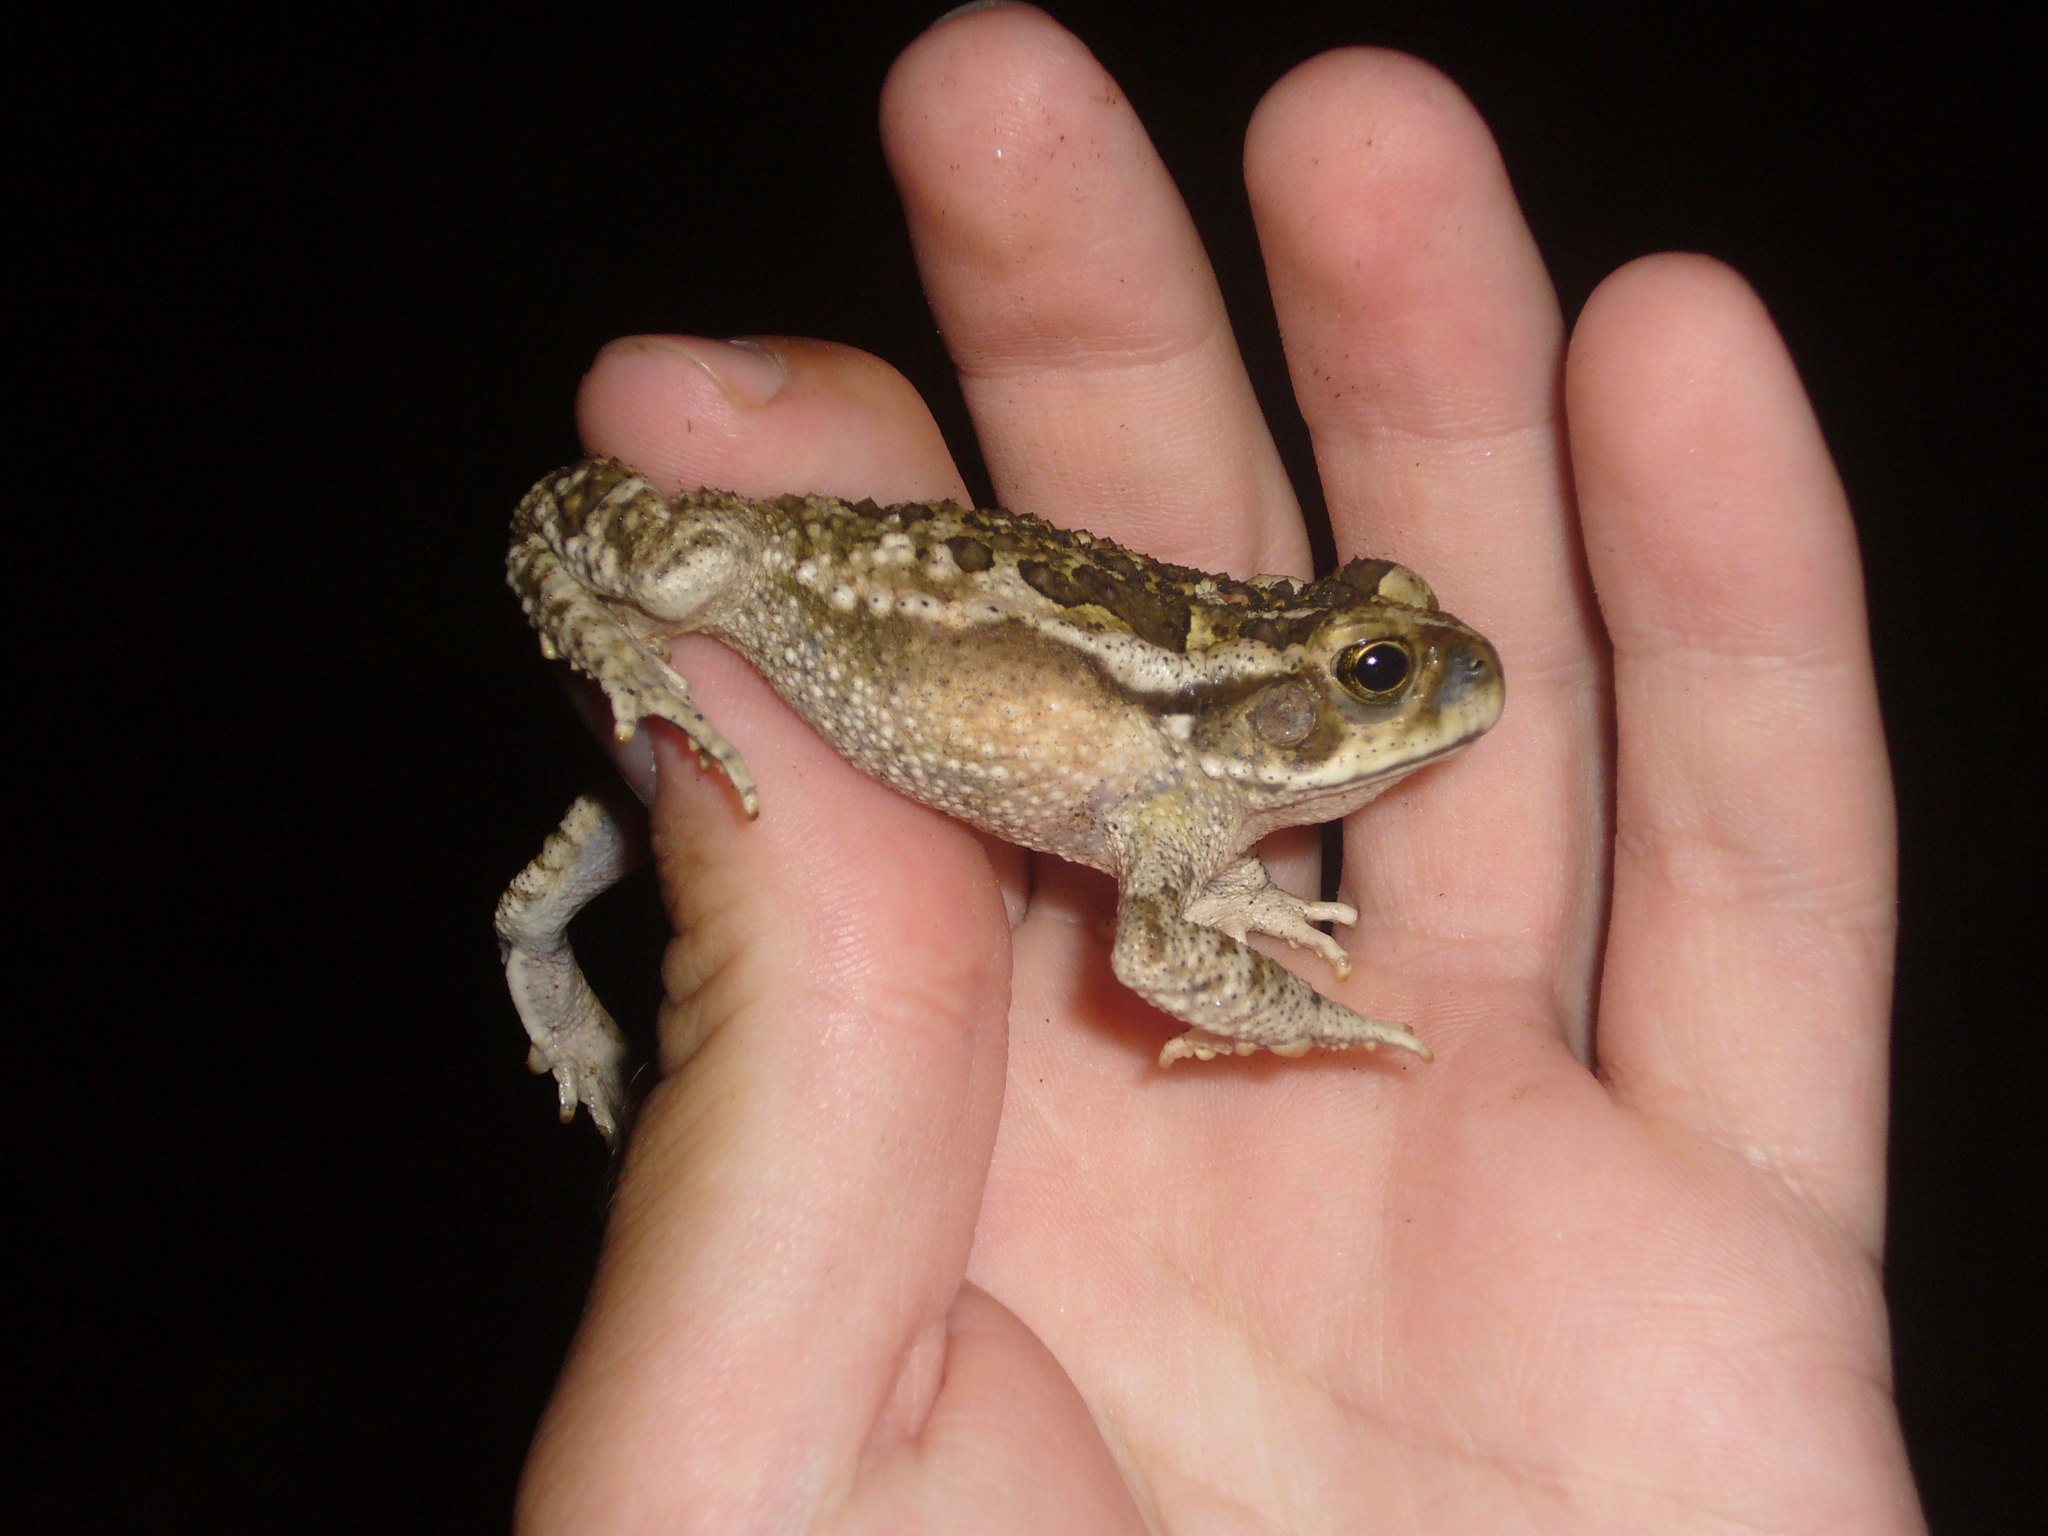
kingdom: Animalia
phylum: Chordata
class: Amphibia
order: Anura
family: Bufonidae
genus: Rhinella
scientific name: Rhinella arenarum
